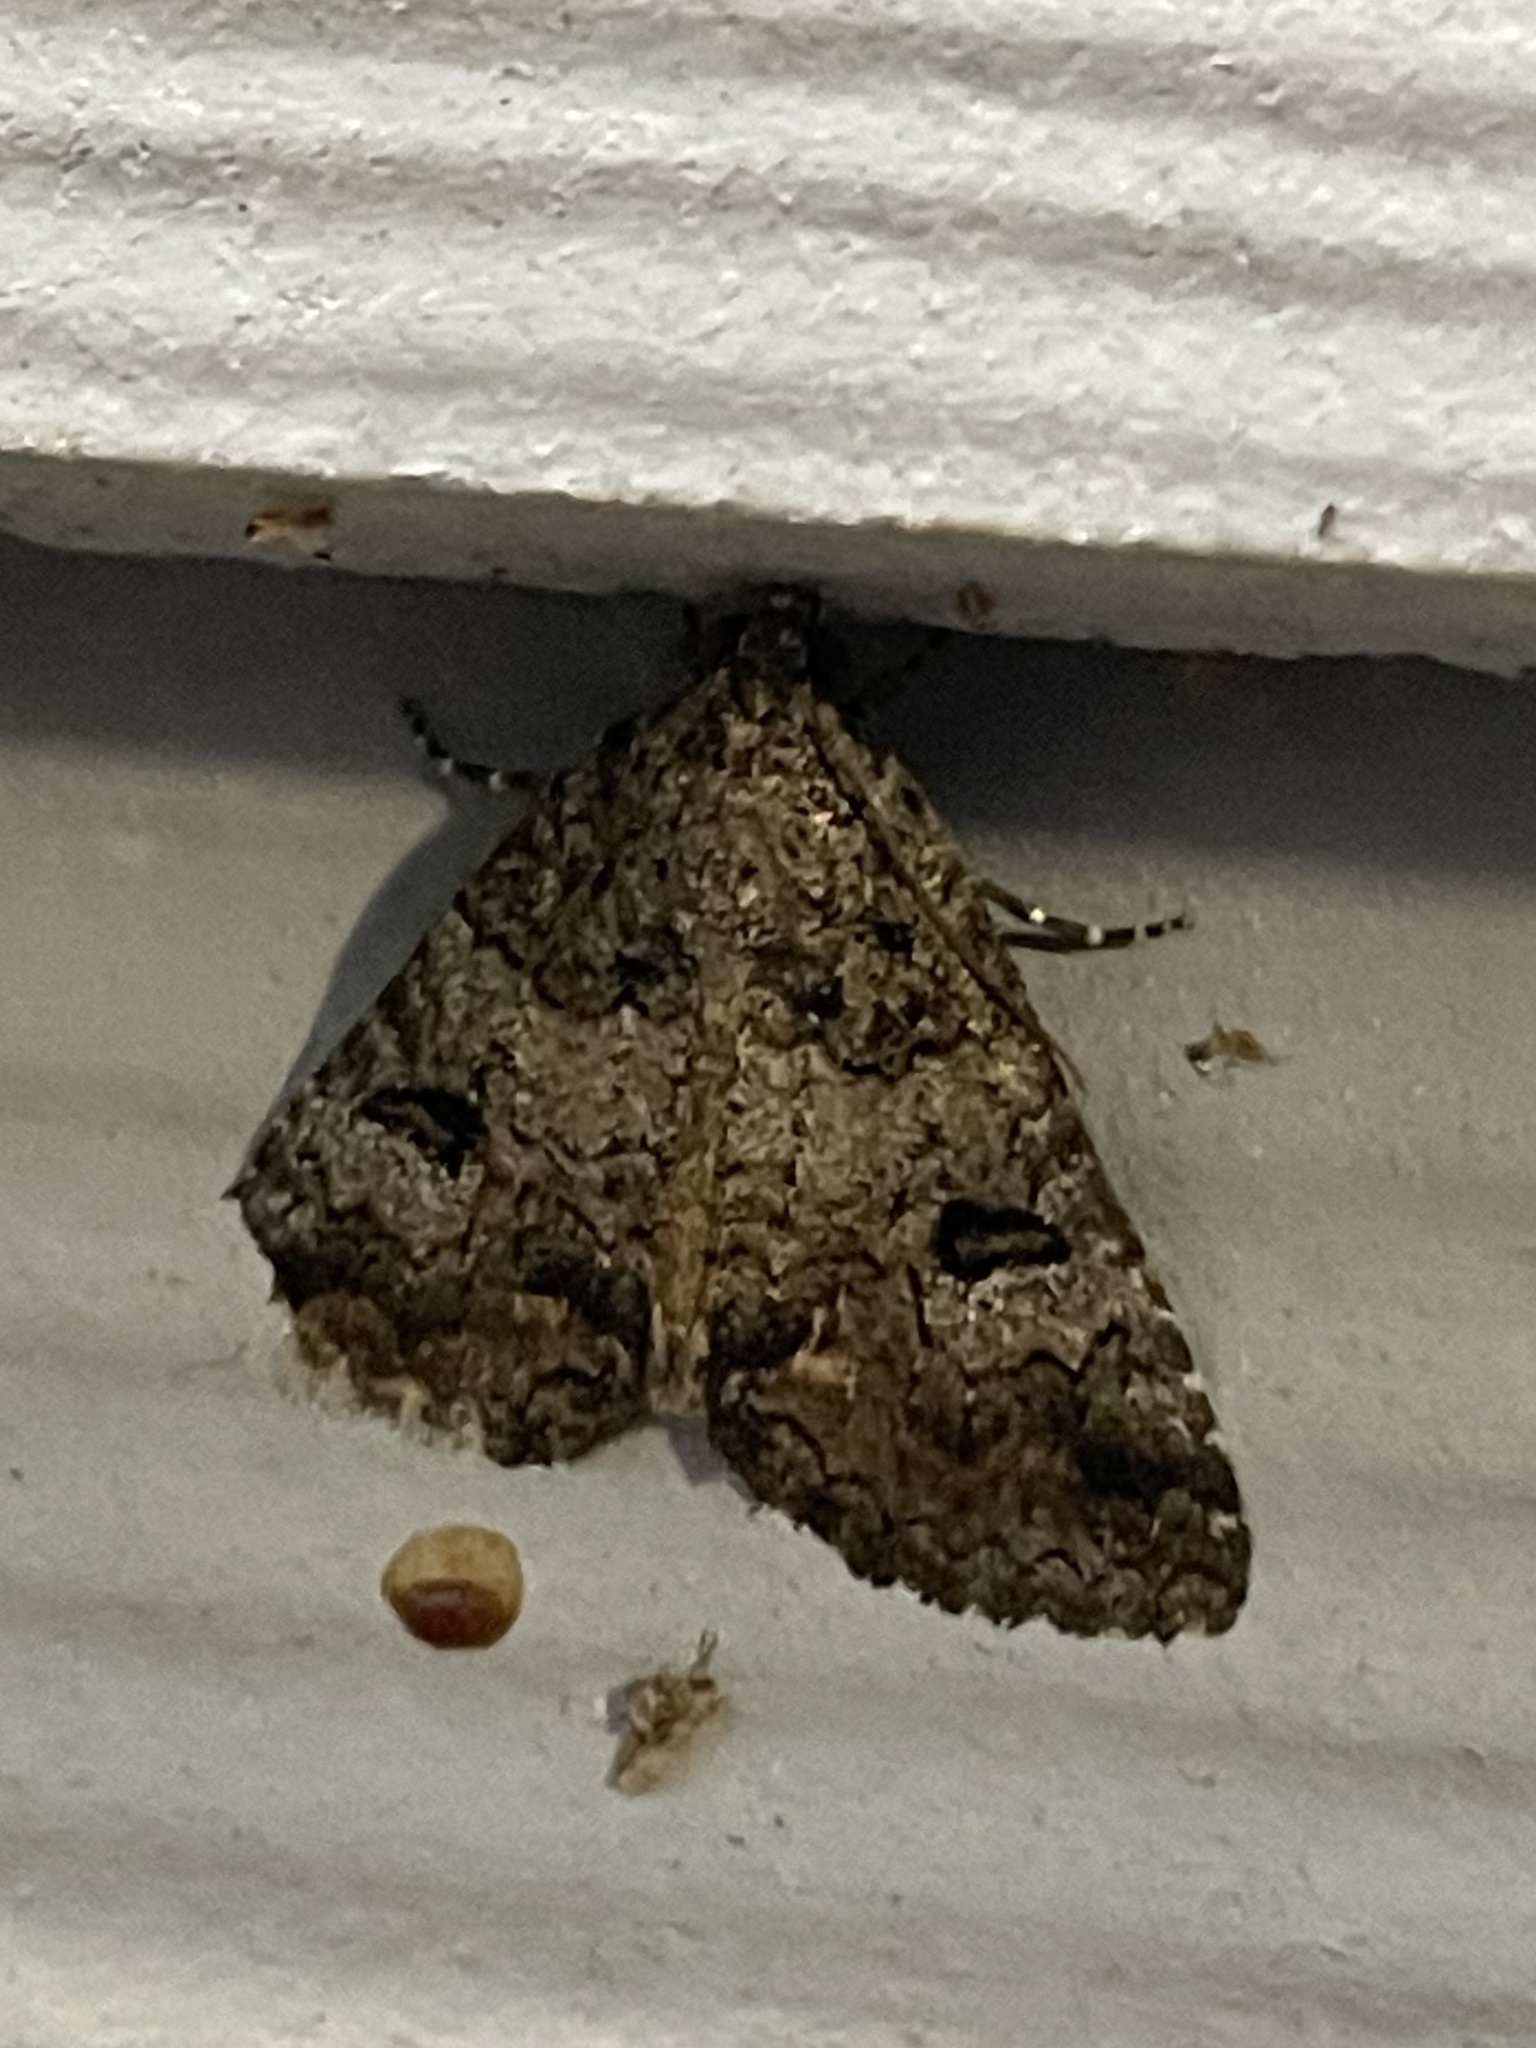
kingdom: Animalia
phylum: Arthropoda
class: Insecta
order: Lepidoptera
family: Erebidae
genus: Eubolina
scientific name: Eubolina impartialis
